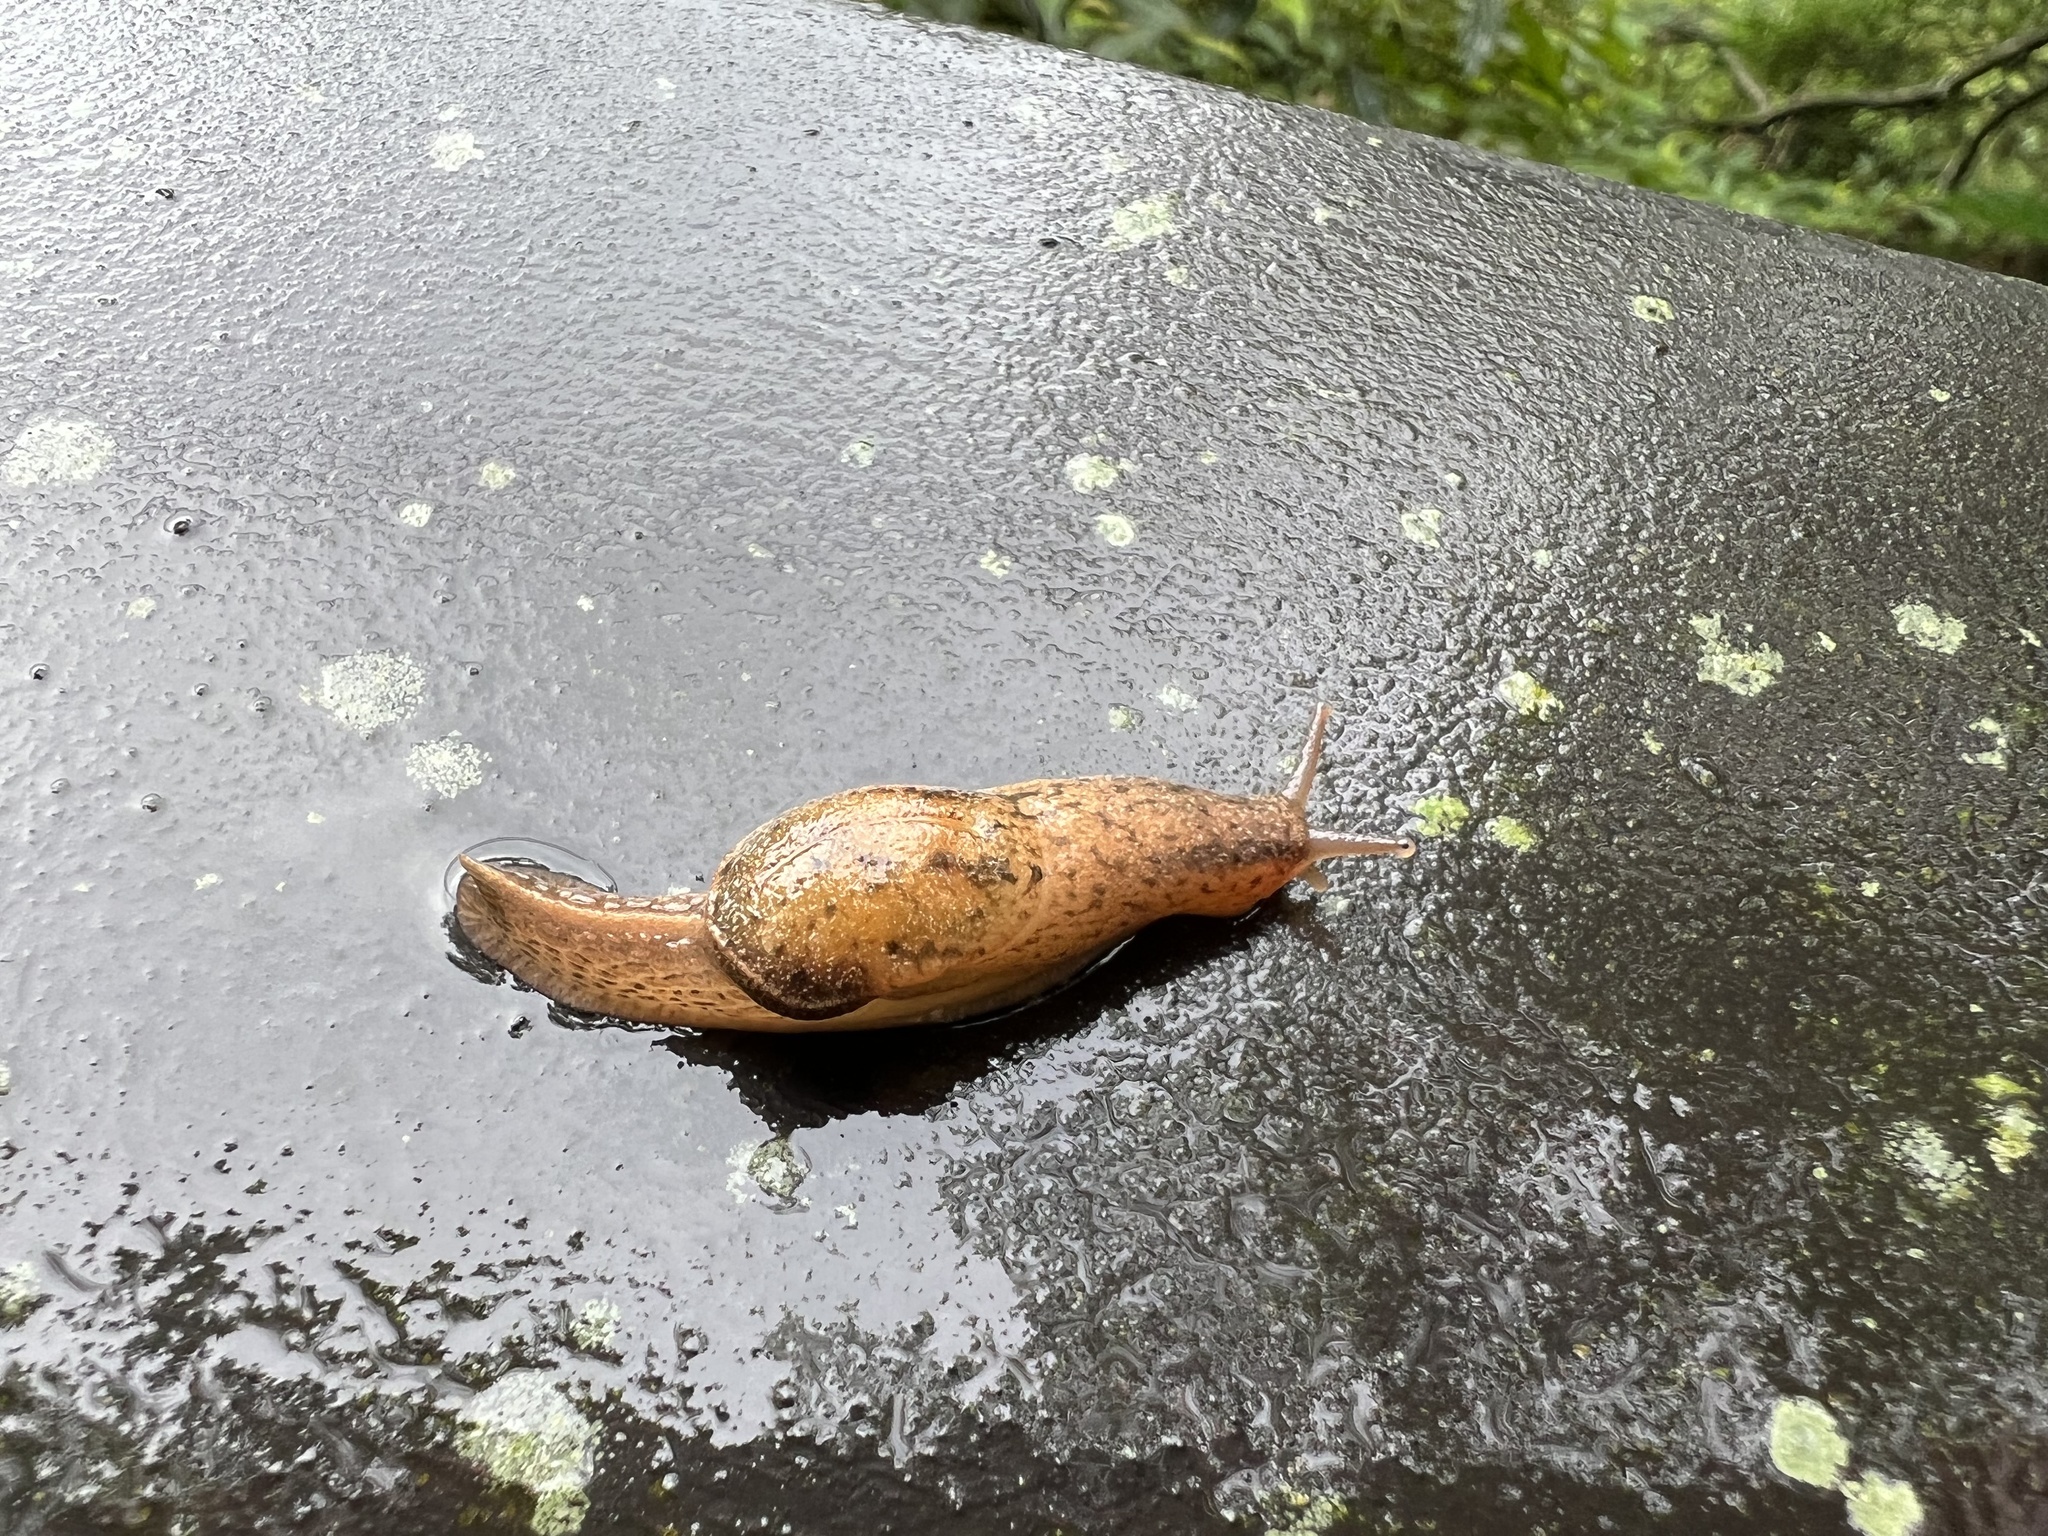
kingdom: Animalia
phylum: Mollusca
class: Gastropoda
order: Stylommatophora
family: Ariophantidae
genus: Parmarion
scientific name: Parmarion martensi
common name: Semi-slug
